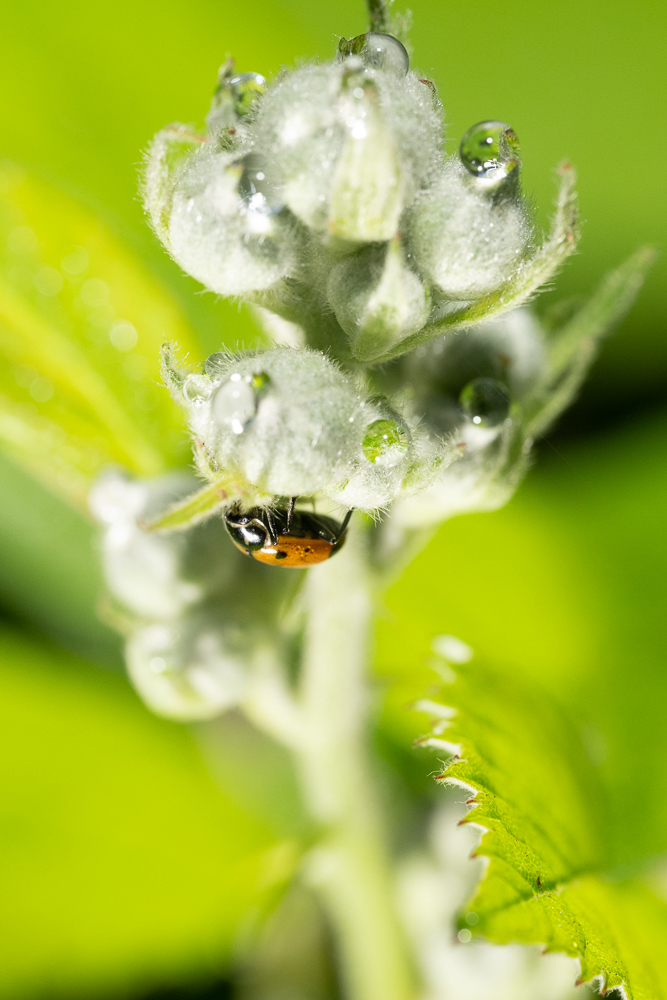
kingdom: Animalia
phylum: Arthropoda
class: Insecta
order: Coleoptera
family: Coccinellidae
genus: Hippodamia
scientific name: Hippodamia convergens
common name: Convergent lady beetle
